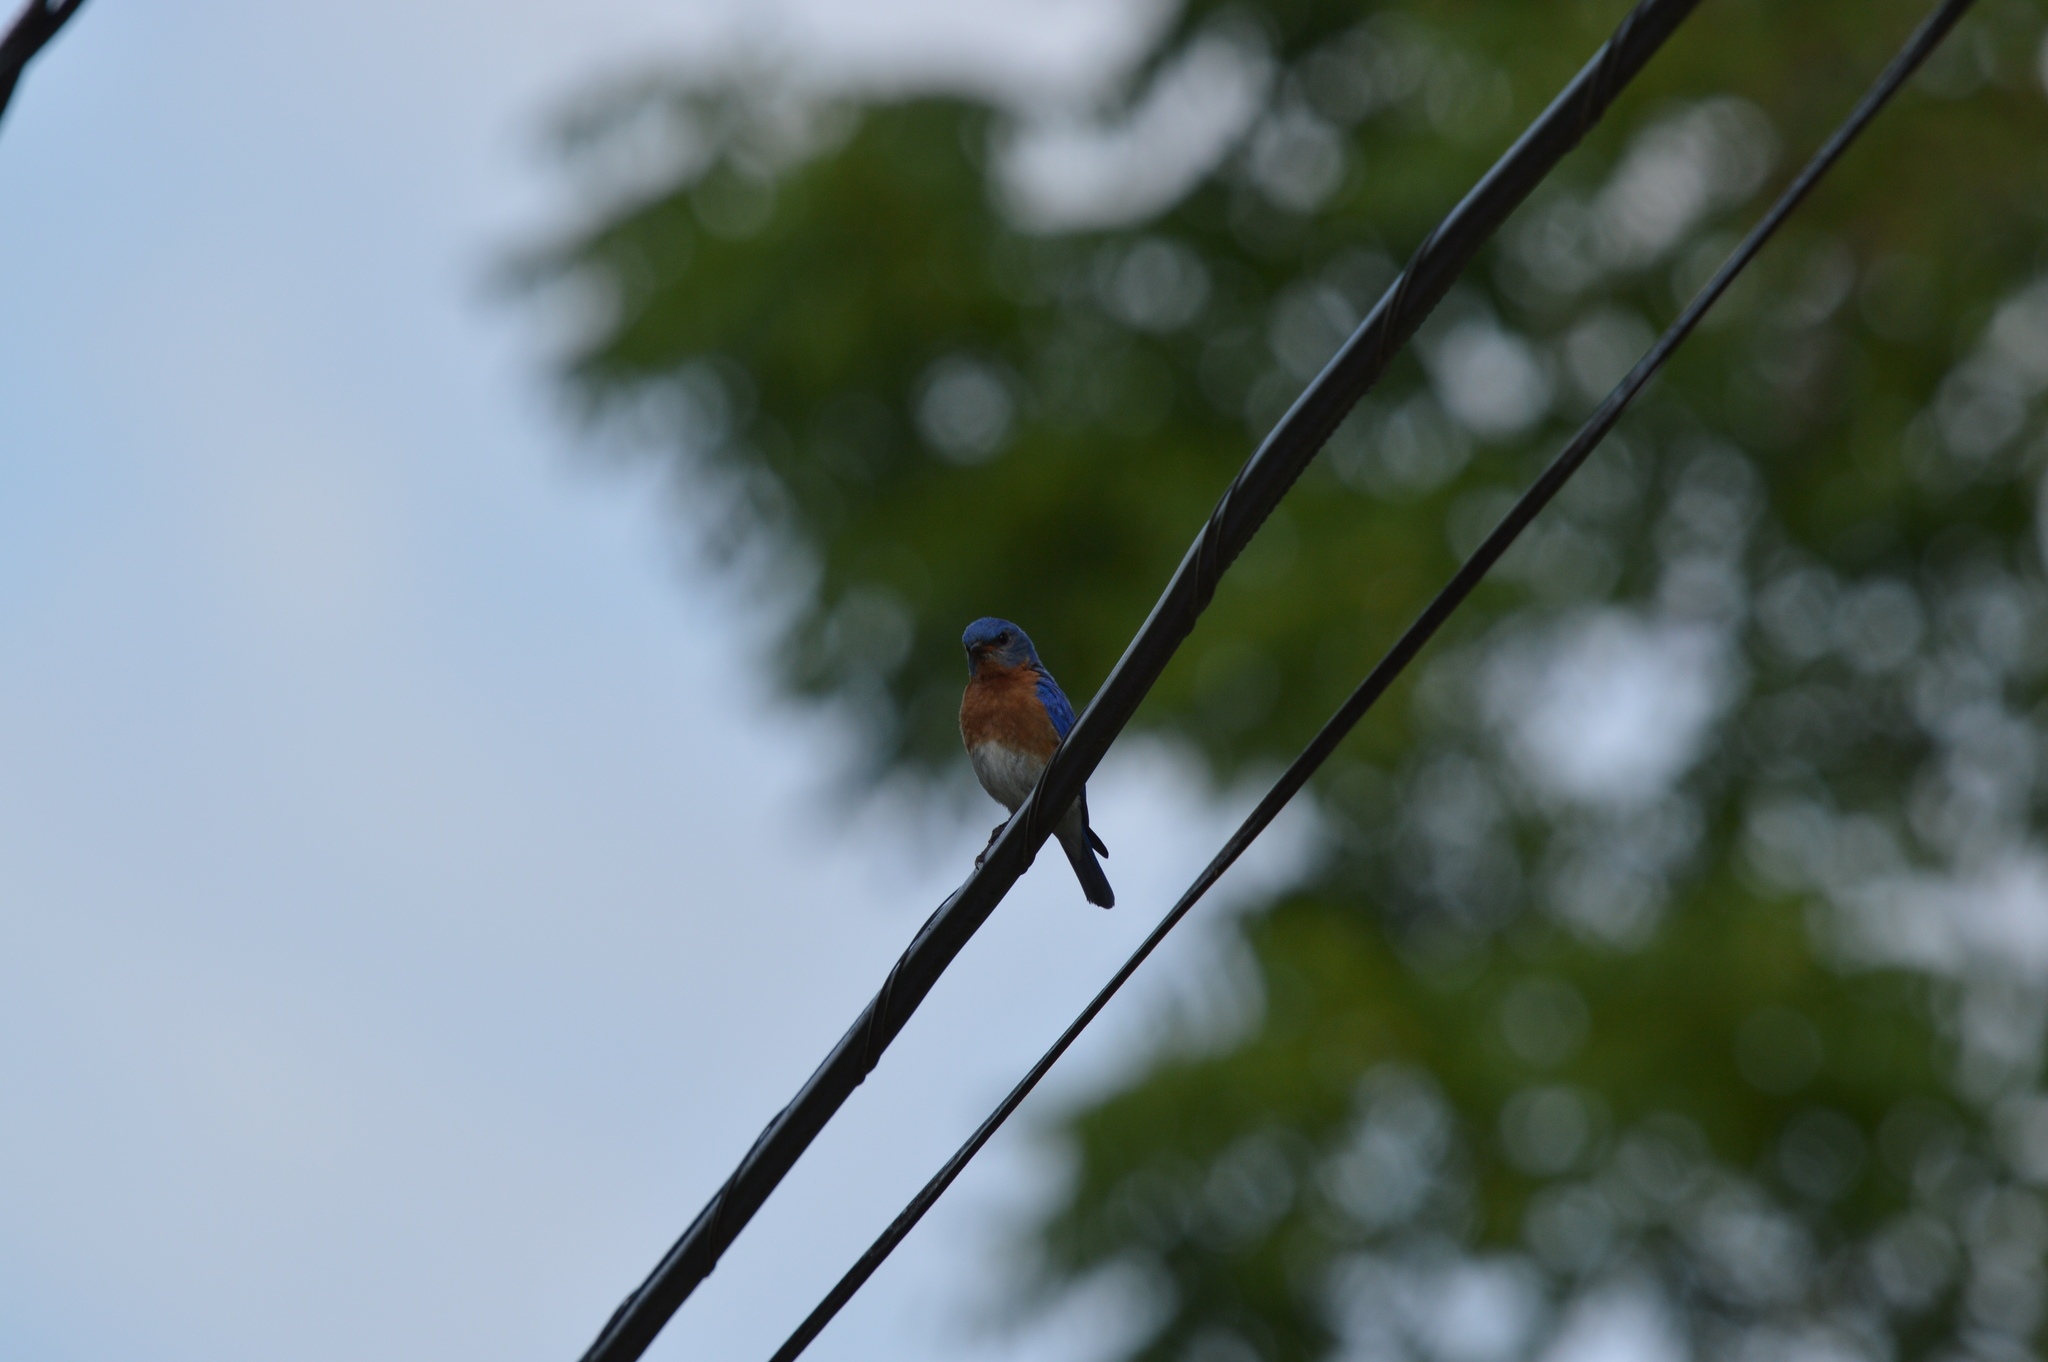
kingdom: Animalia
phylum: Chordata
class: Aves
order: Passeriformes
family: Turdidae
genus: Sialia
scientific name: Sialia sialis
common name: Eastern bluebird
